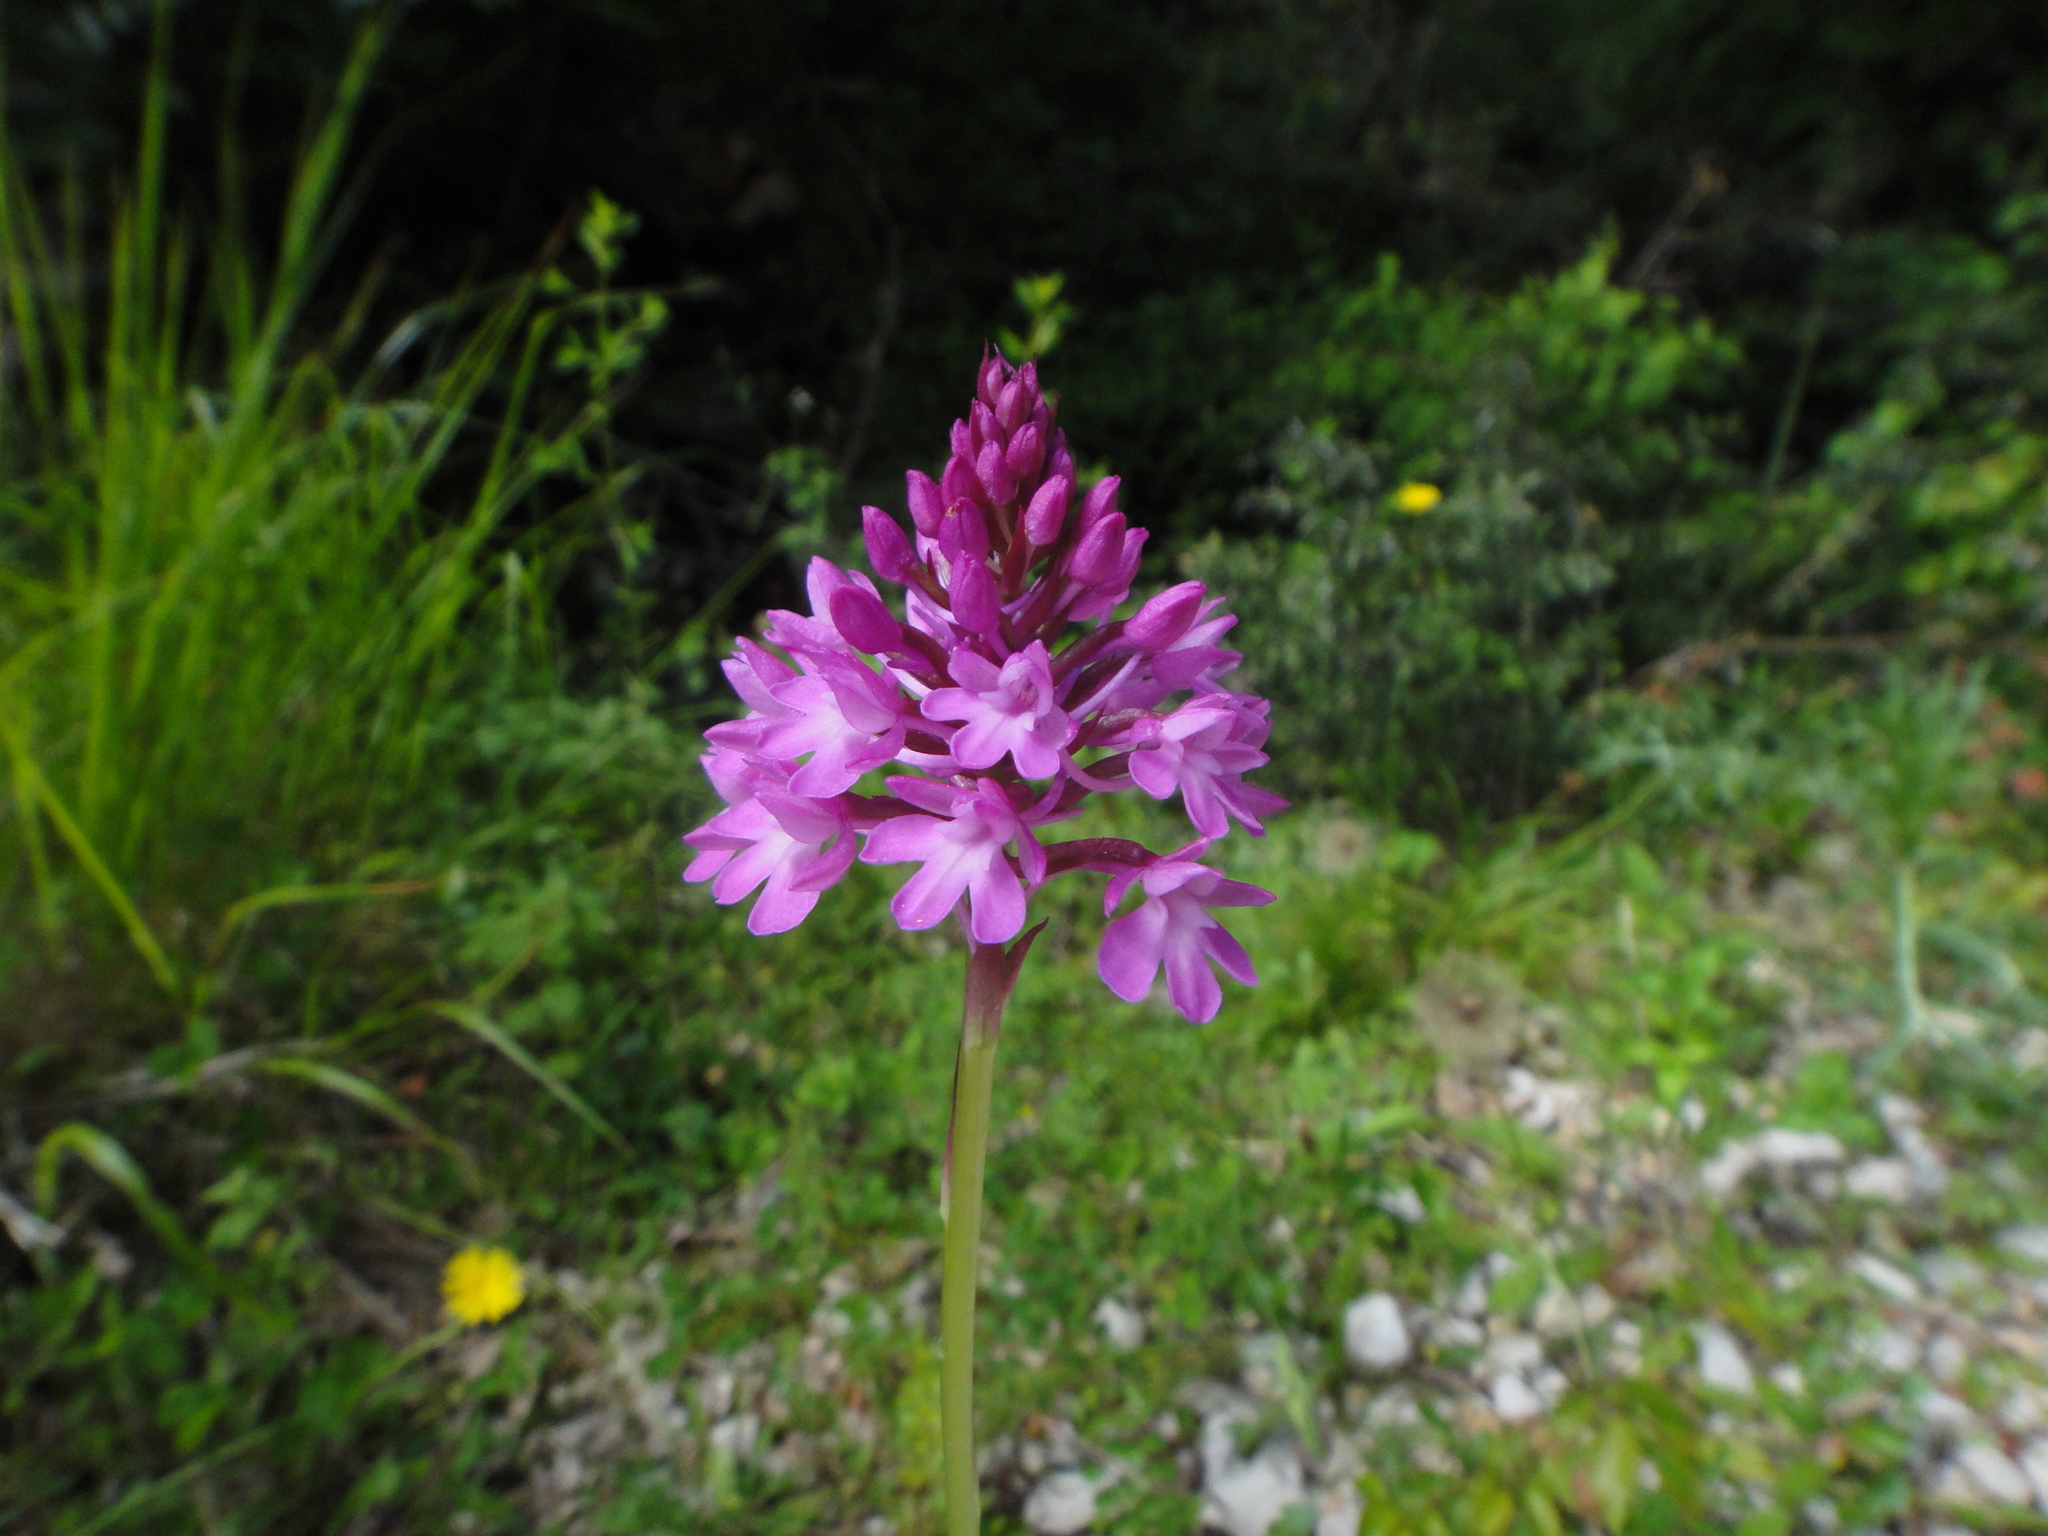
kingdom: Plantae
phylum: Tracheophyta
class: Liliopsida
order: Asparagales
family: Orchidaceae
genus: Anacamptis
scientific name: Anacamptis pyramidalis
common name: Pyramidal orchid
